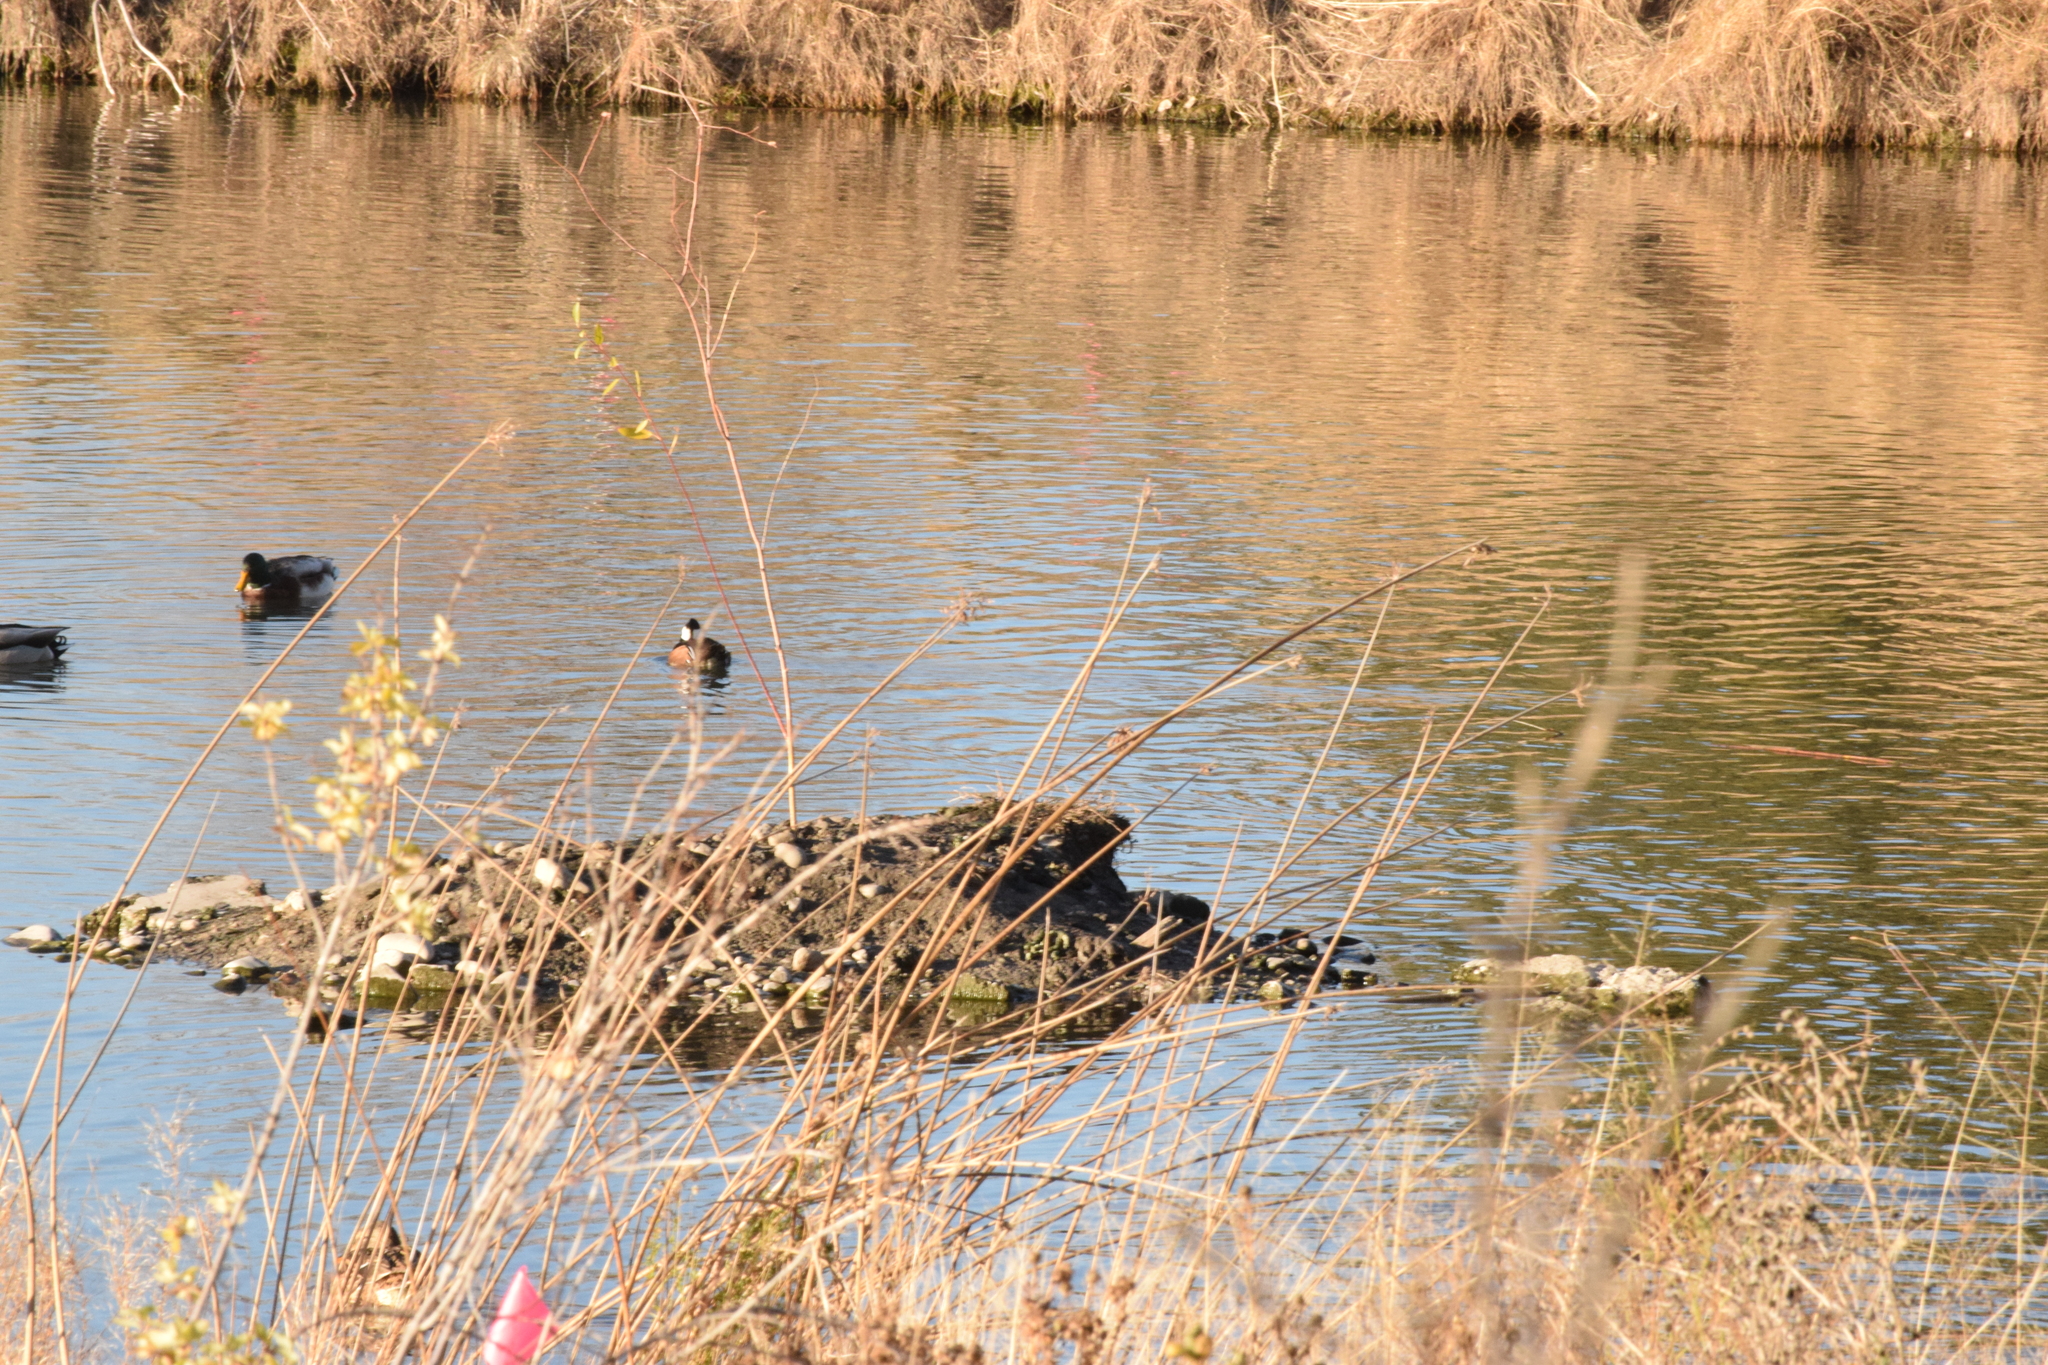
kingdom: Animalia
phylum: Chordata
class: Aves
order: Anseriformes
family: Anatidae
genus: Lophodytes
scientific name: Lophodytes cucullatus
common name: Hooded merganser
